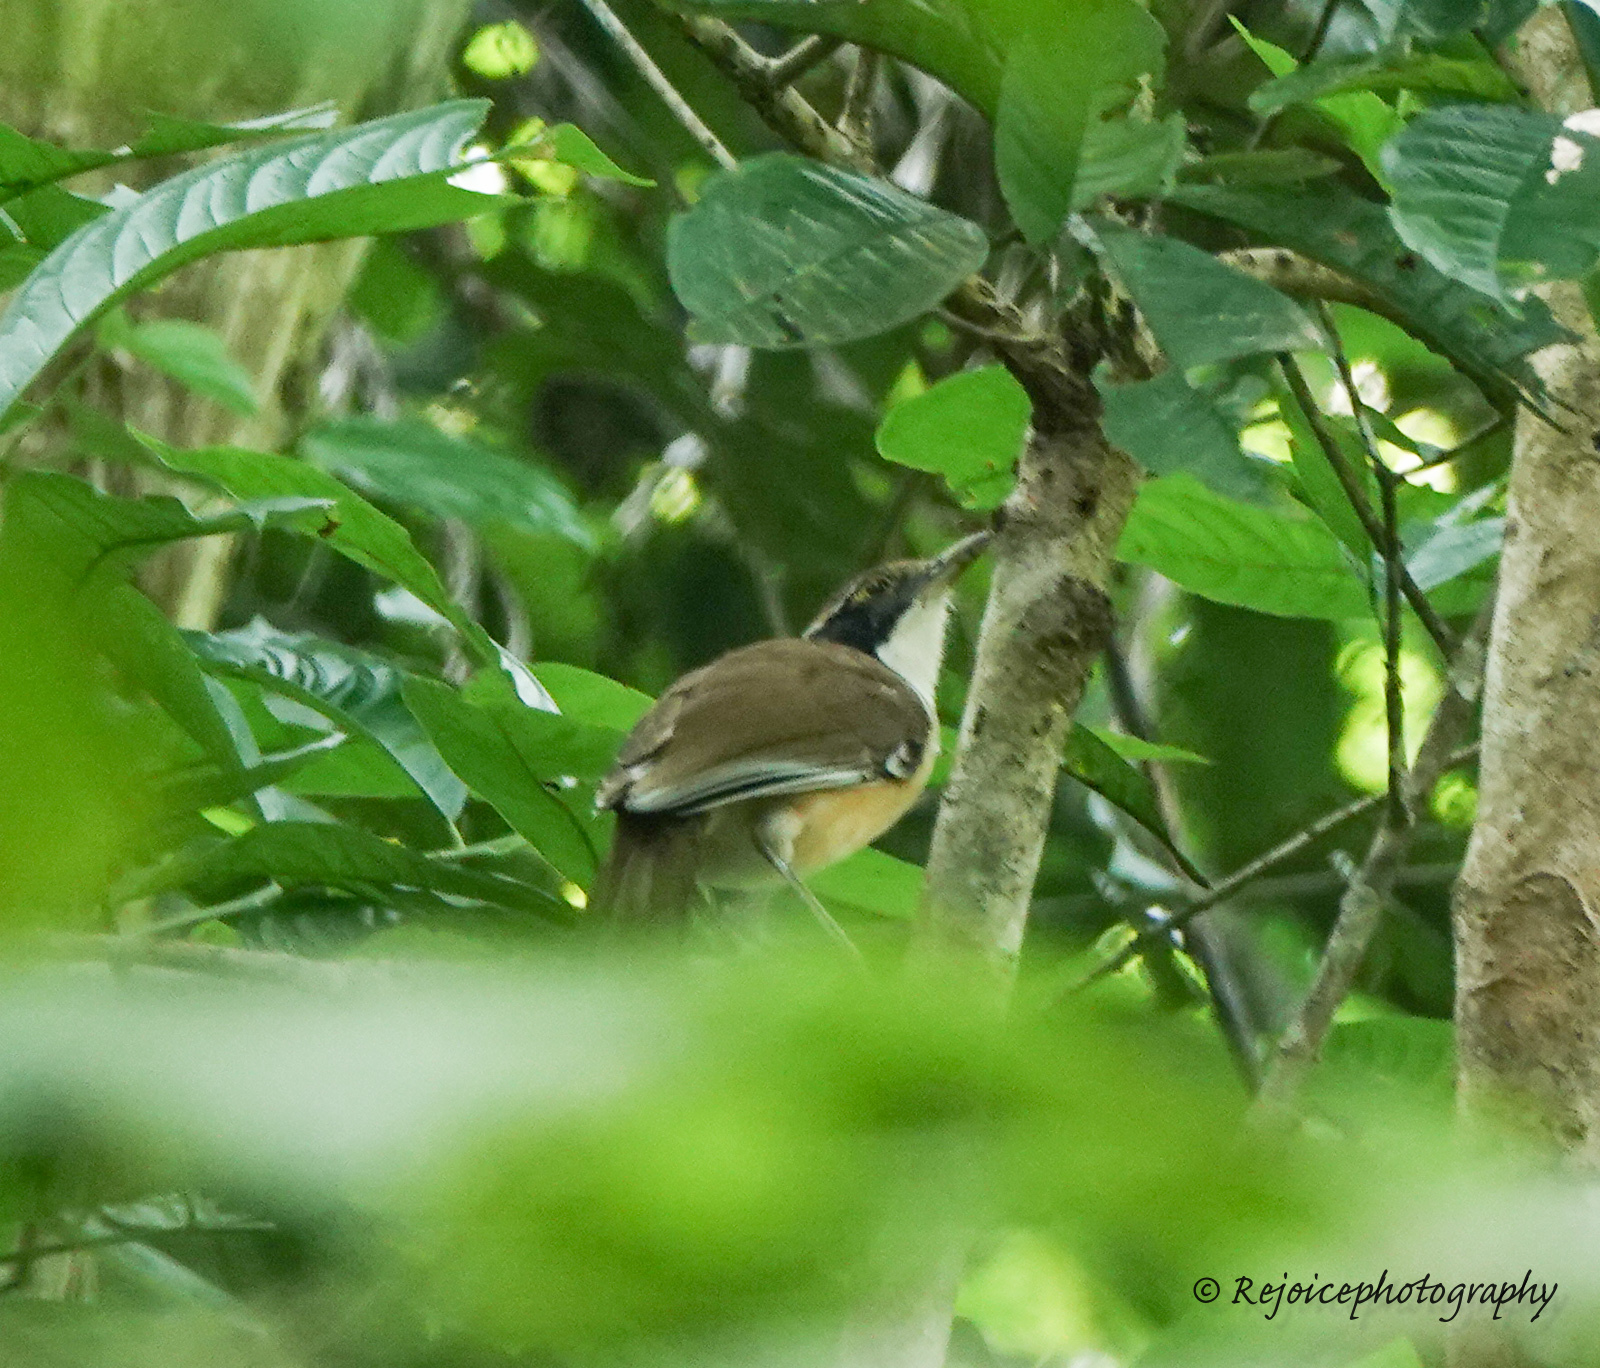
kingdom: Animalia
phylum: Chordata
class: Aves
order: Passeriformes
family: Leiothrichidae
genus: Garrulax
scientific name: Garrulax pectoralis
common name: Greater necklaced laughingthrush
